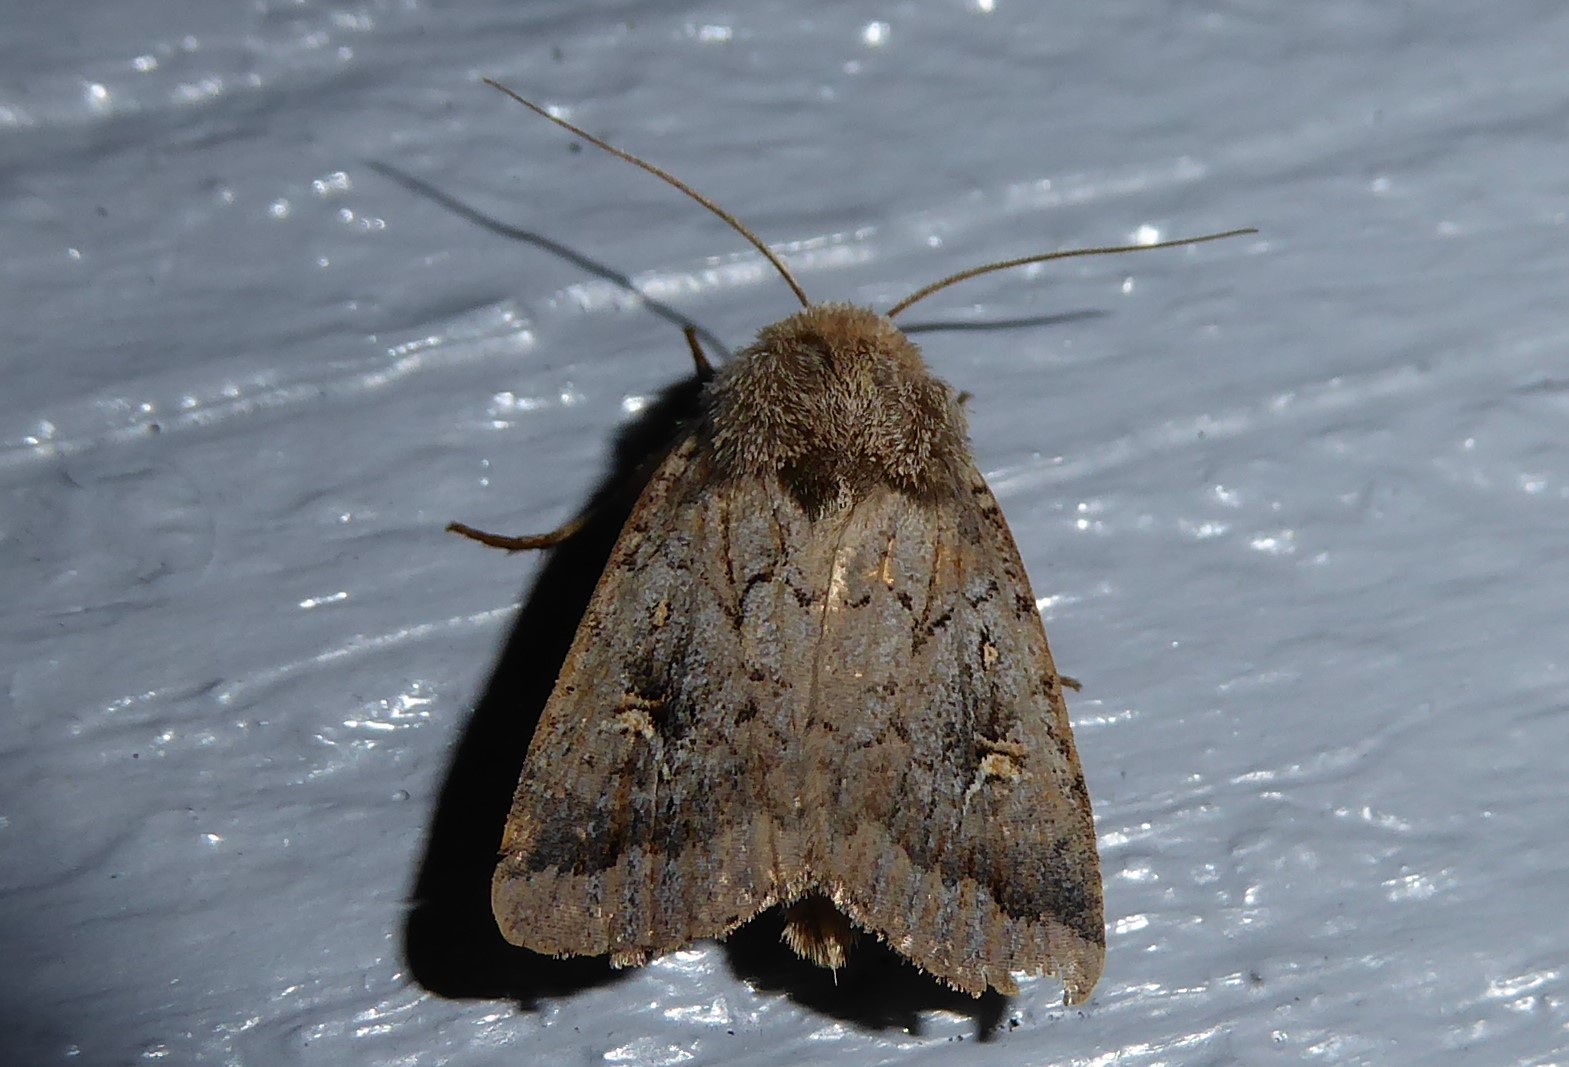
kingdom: Animalia
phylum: Arthropoda
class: Insecta
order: Lepidoptera
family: Noctuidae
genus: Proteuxoa
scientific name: Proteuxoa tetronycha
